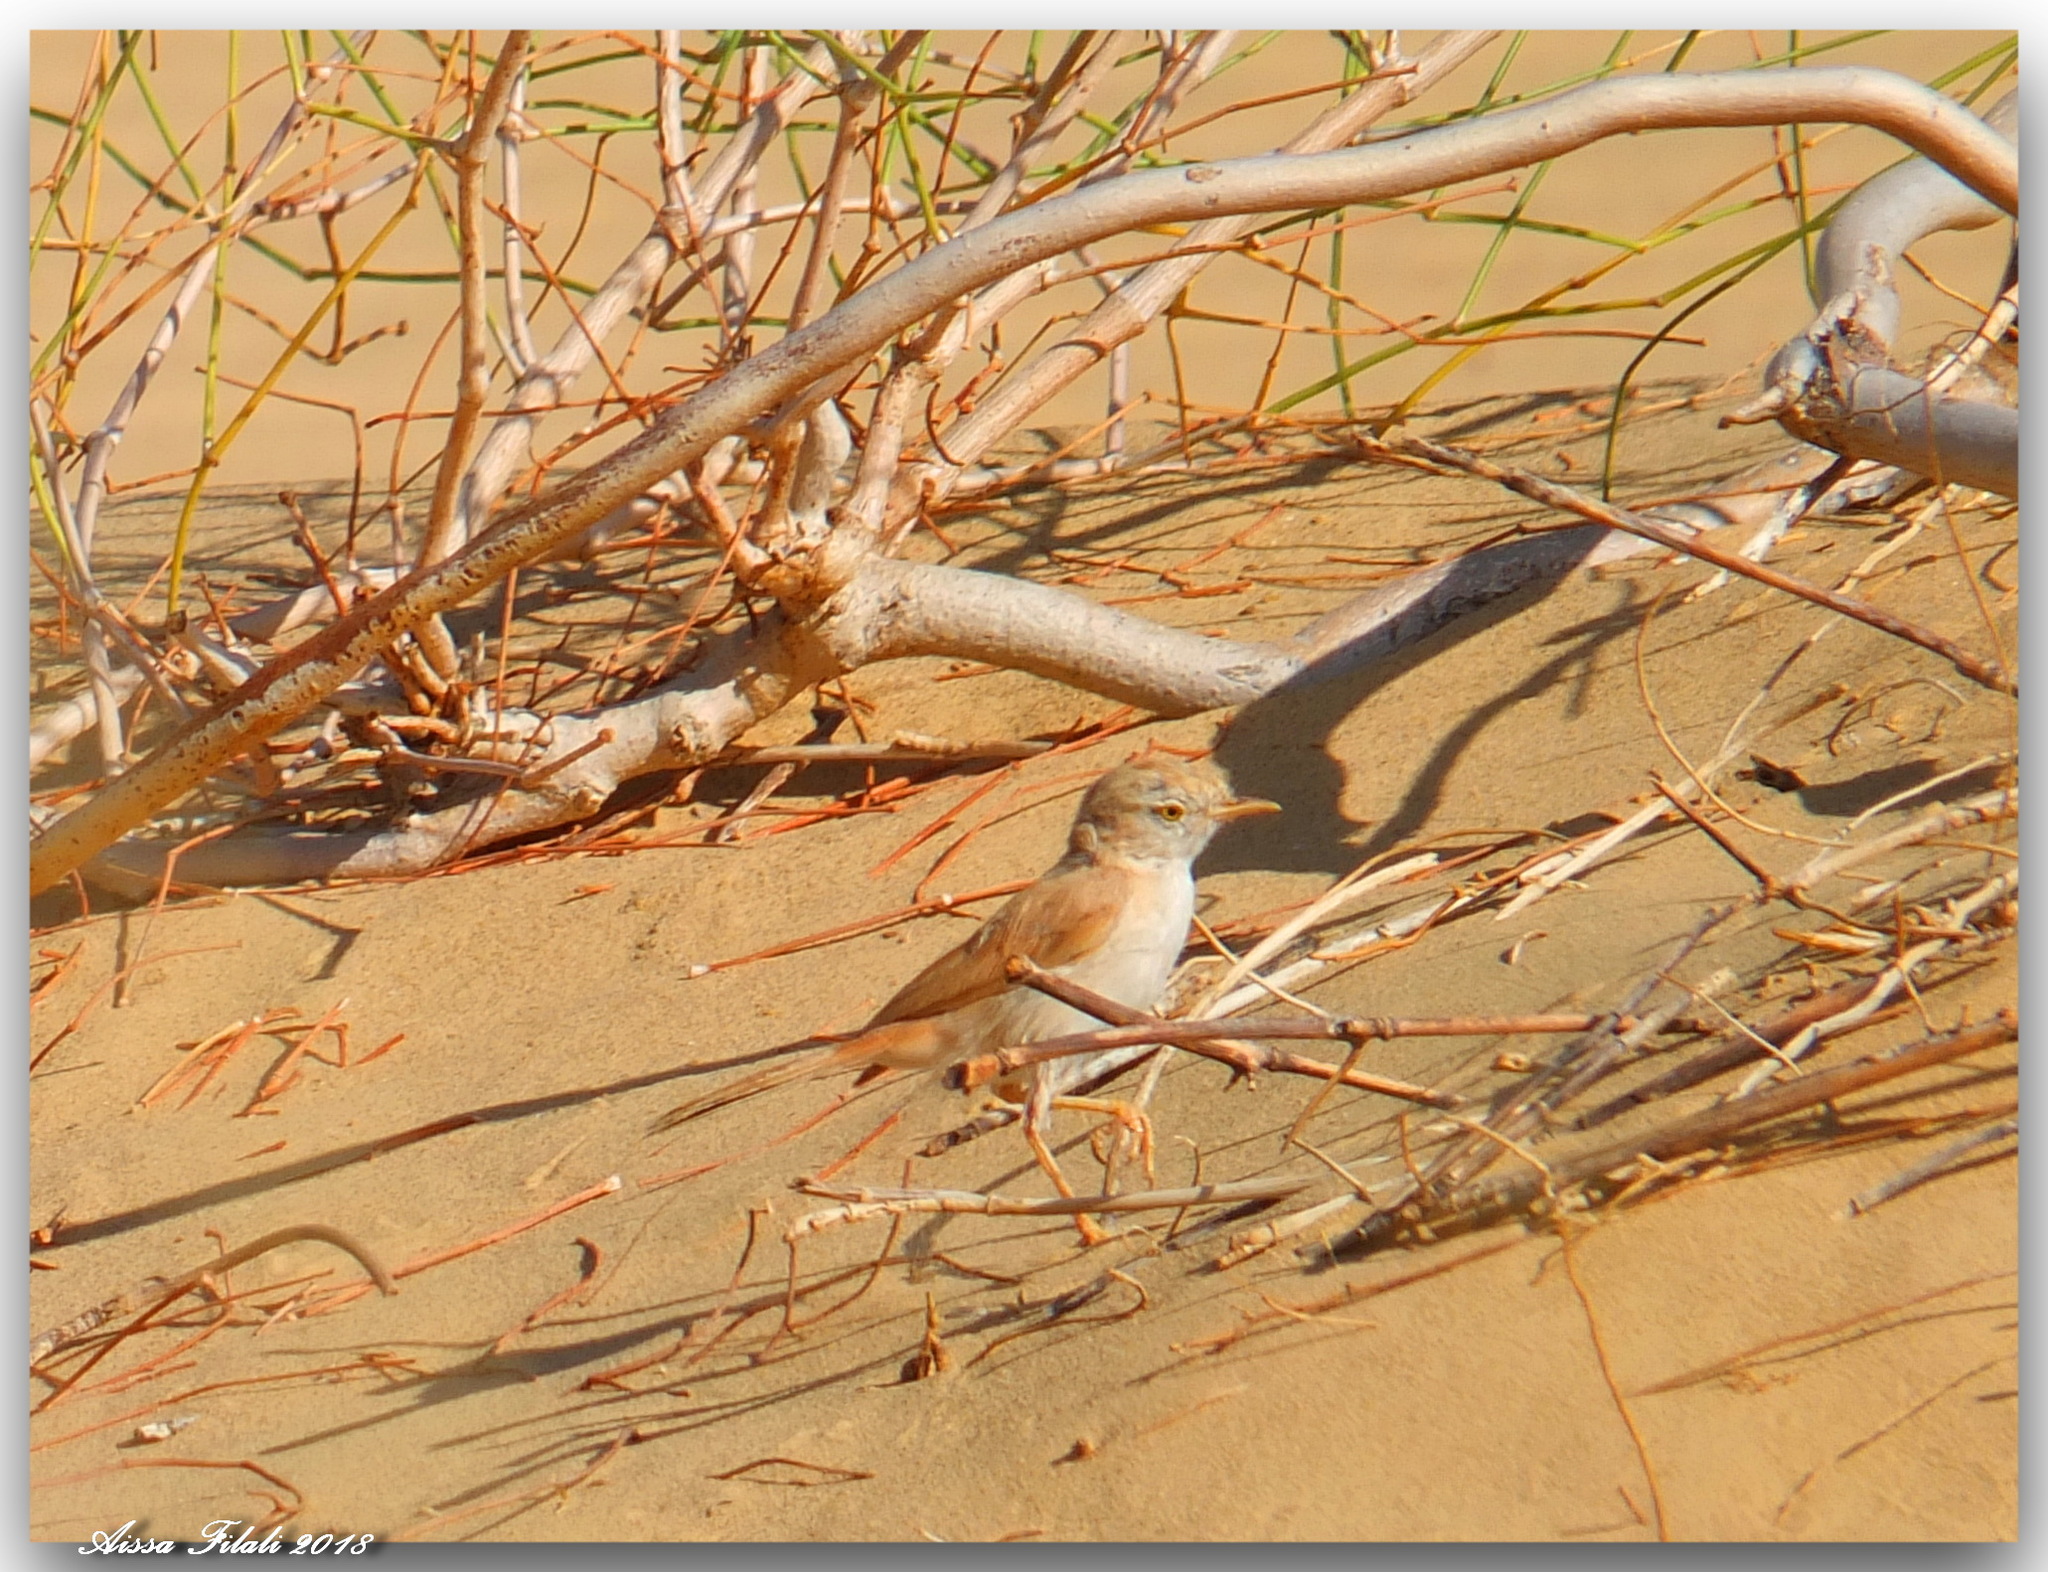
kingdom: Animalia
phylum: Chordata
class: Aves
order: Passeriformes
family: Sylviidae
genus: Sylvia
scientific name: Sylvia deserti
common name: African desert warbler
